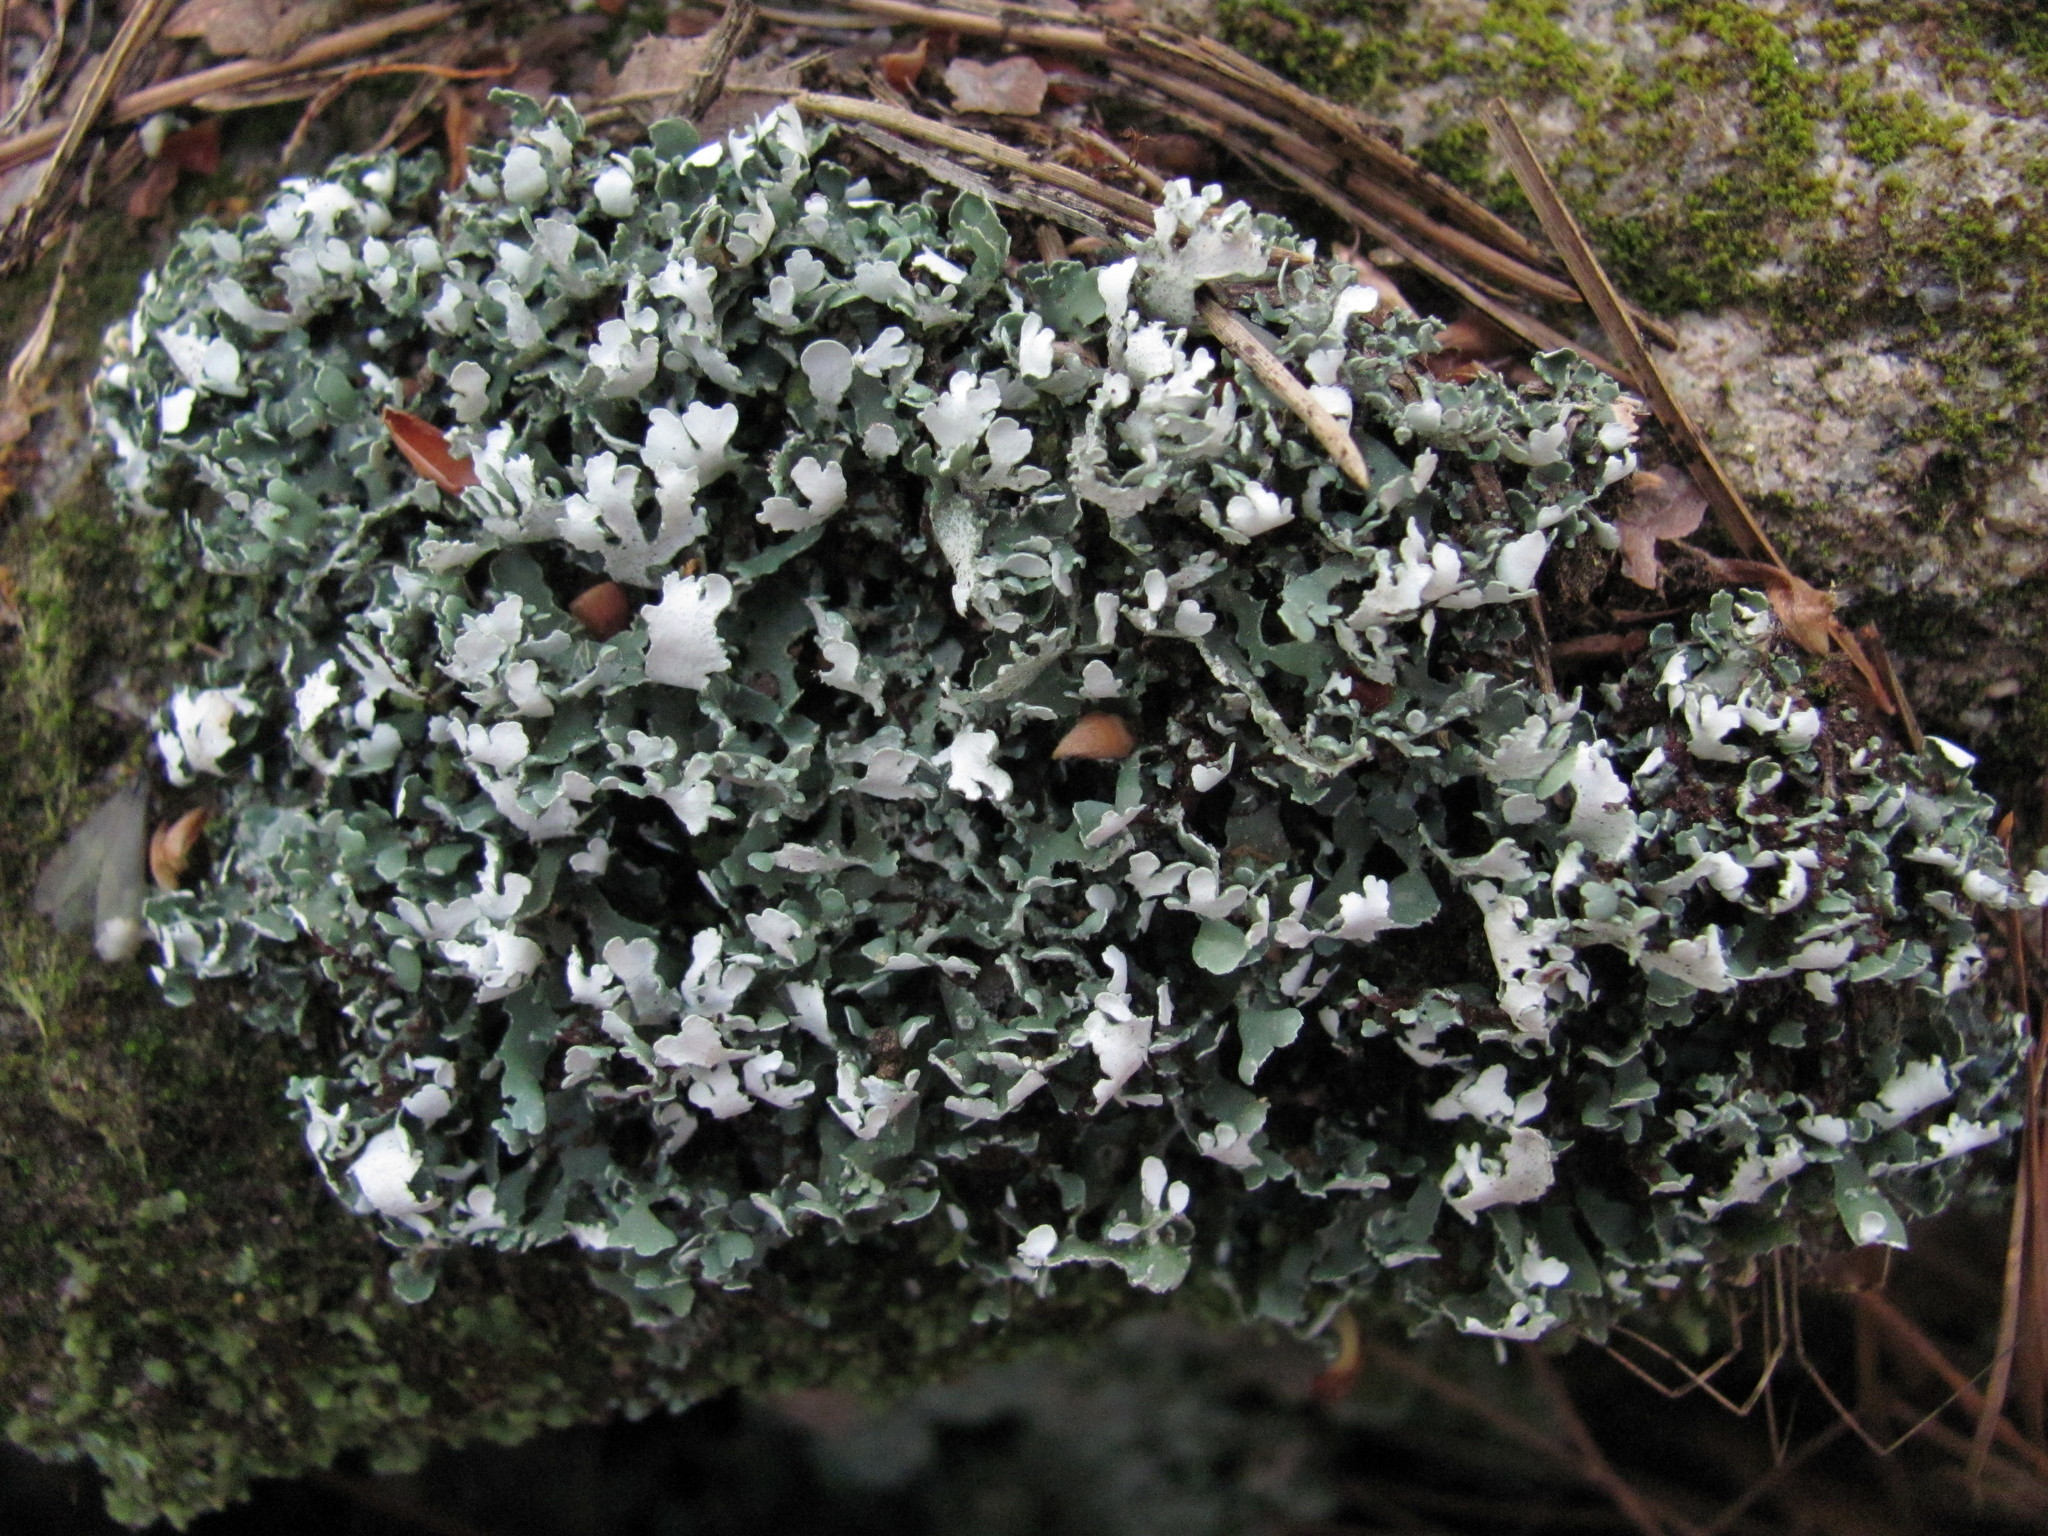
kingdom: Fungi
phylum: Ascomycota
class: Lecanoromycetes
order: Lecanorales
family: Cladoniaceae
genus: Cladonia
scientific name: Cladonia apodocarpa
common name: Stalkless cladonia
